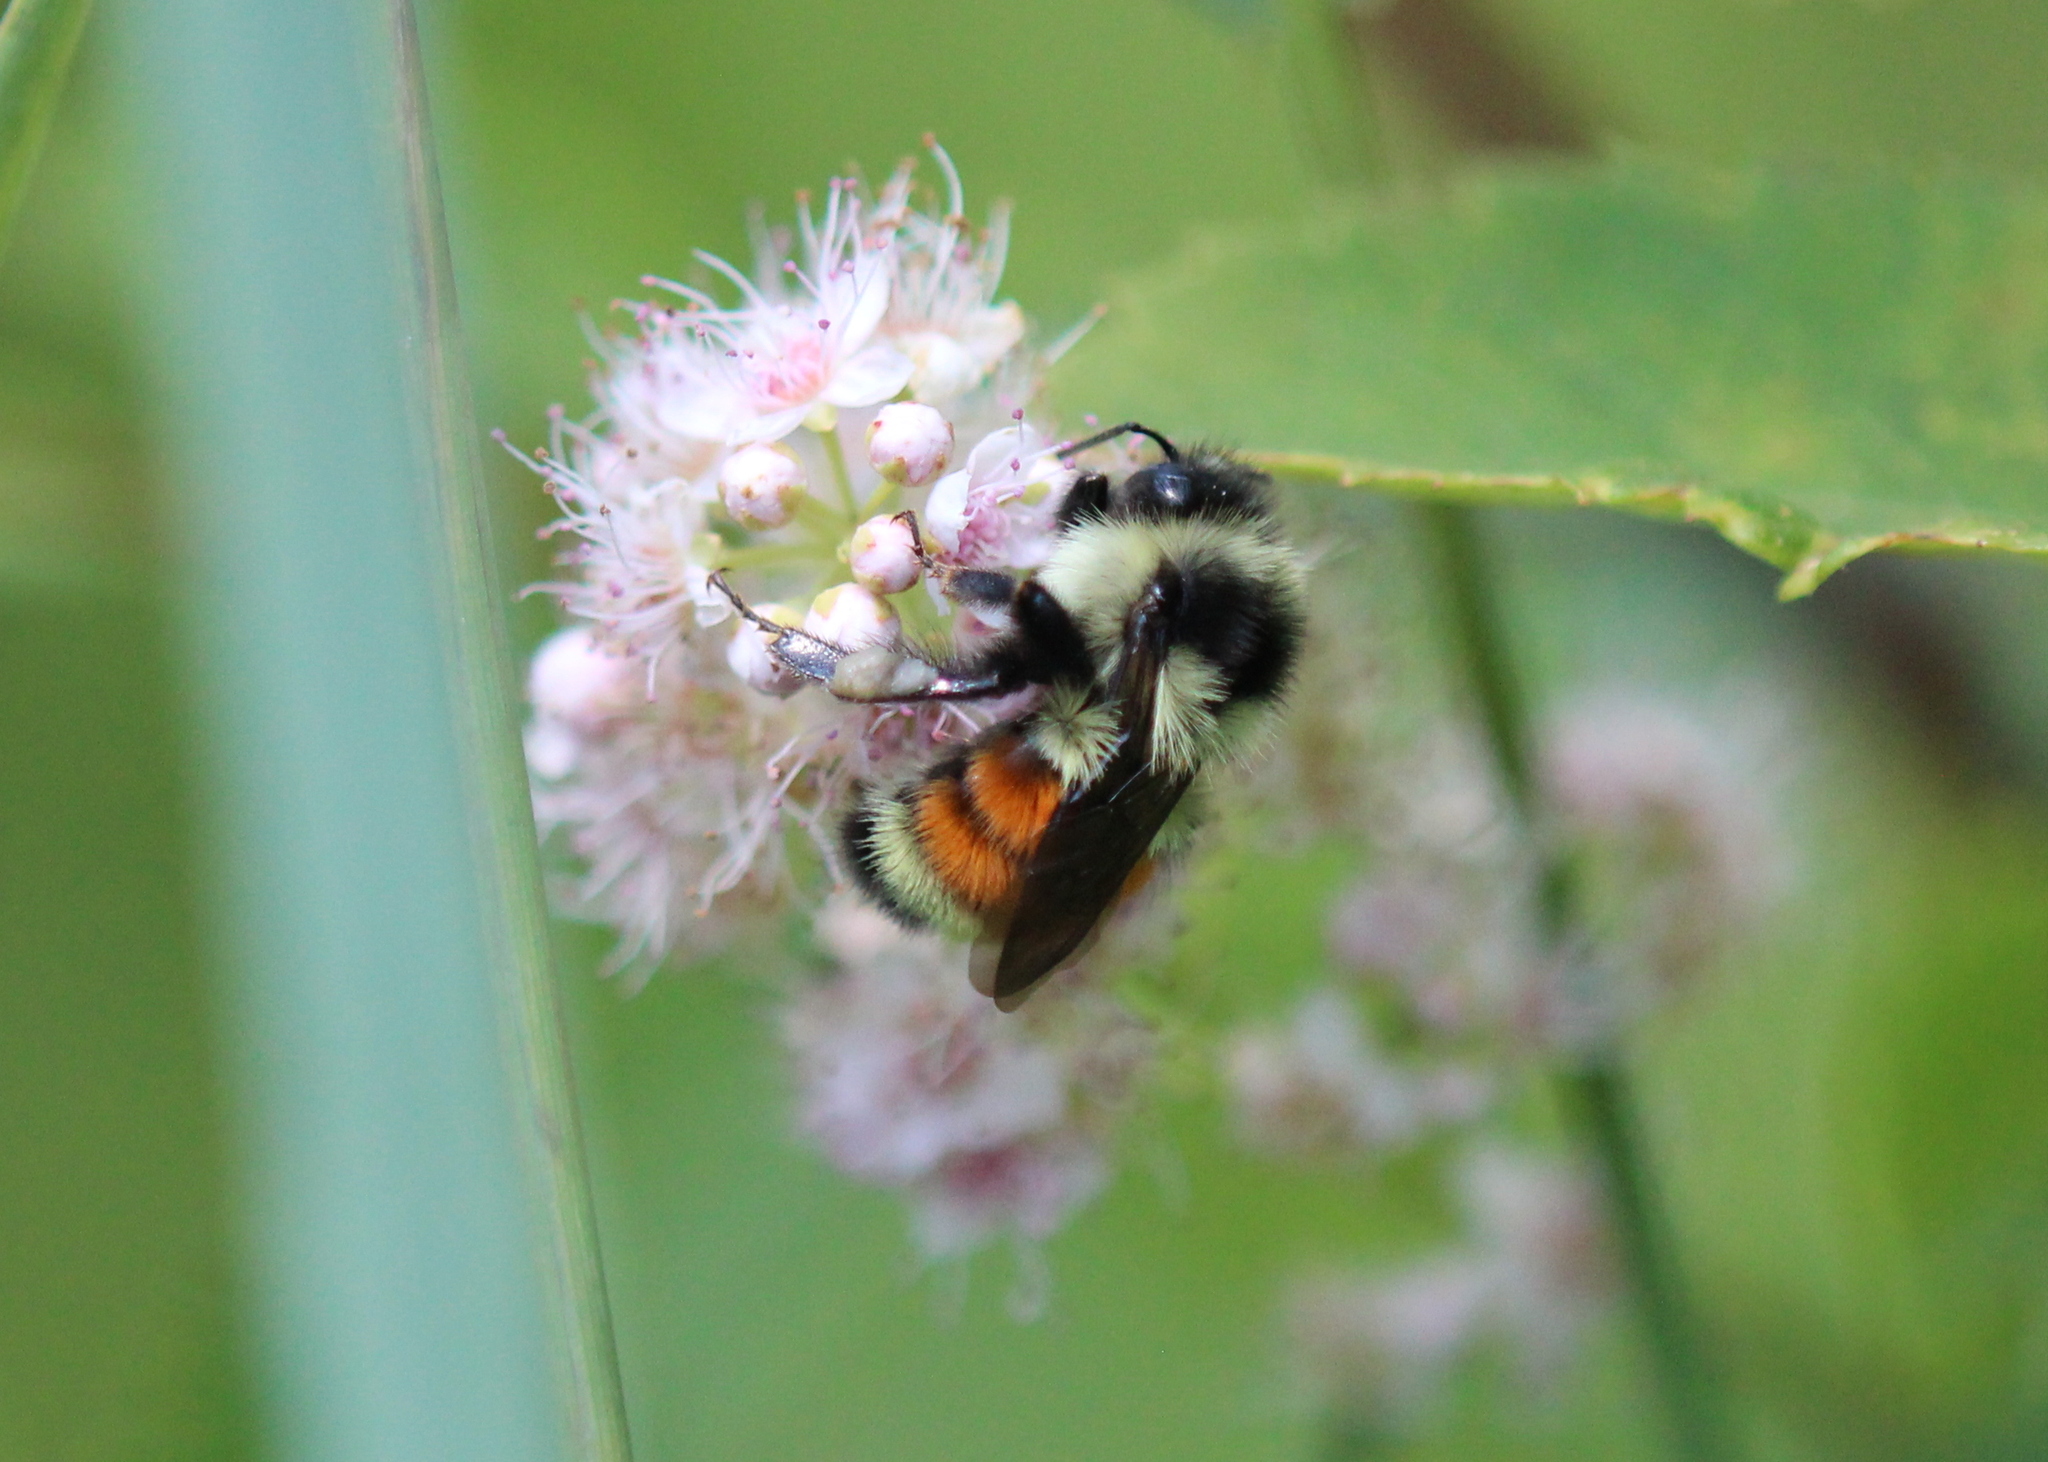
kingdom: Animalia
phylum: Arthropoda
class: Insecta
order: Hymenoptera
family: Apidae
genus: Bombus
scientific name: Bombus ternarius
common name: Tri-colored bumble bee
